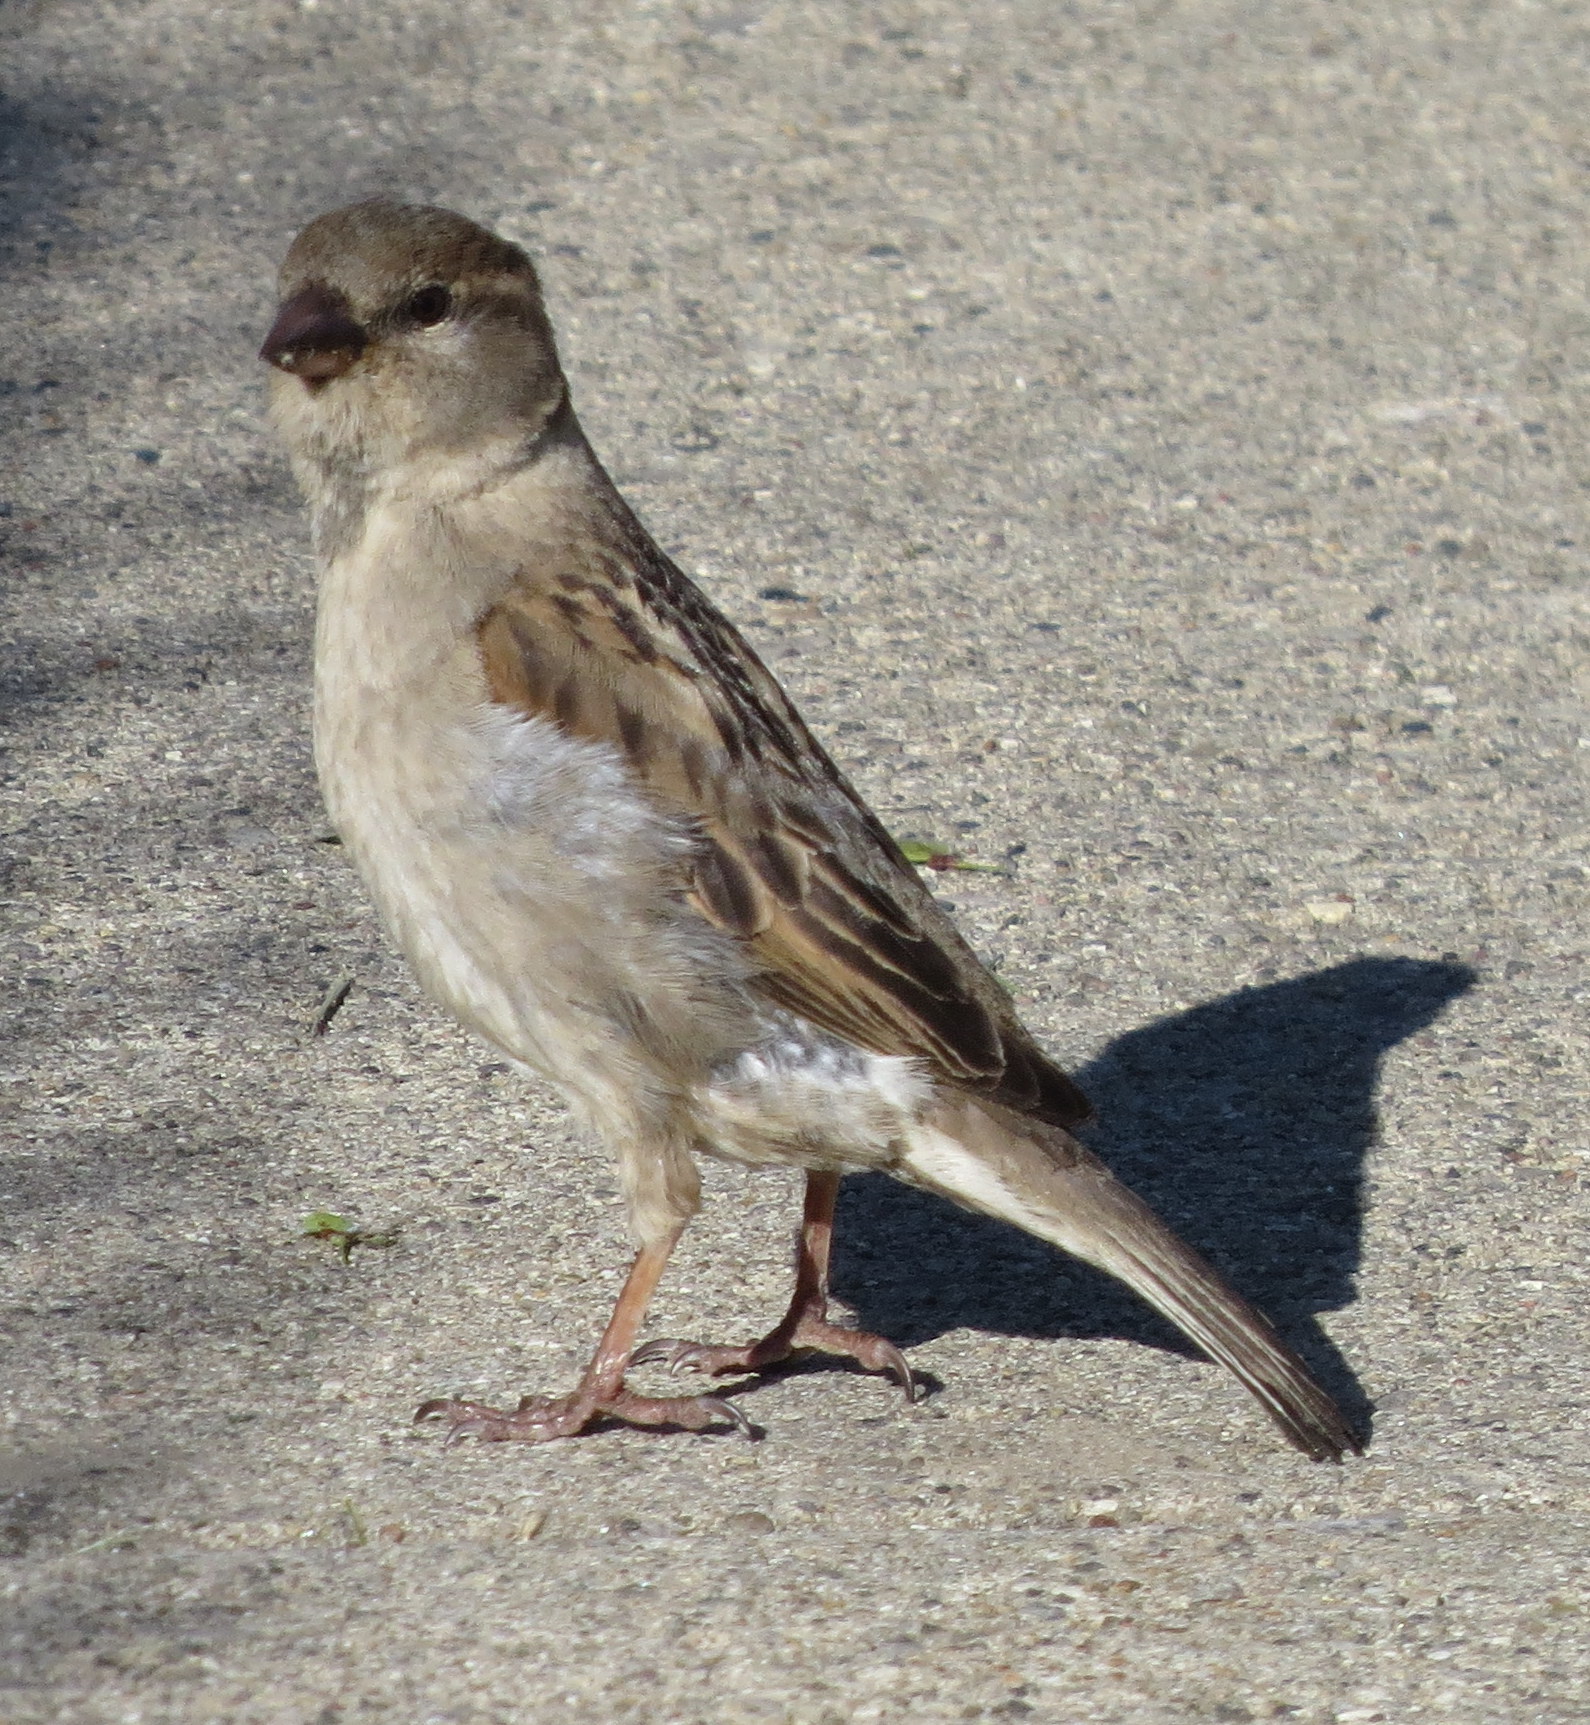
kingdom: Animalia
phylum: Chordata
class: Aves
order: Passeriformes
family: Passeridae
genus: Passer
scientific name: Passer domesticus
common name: House sparrow
